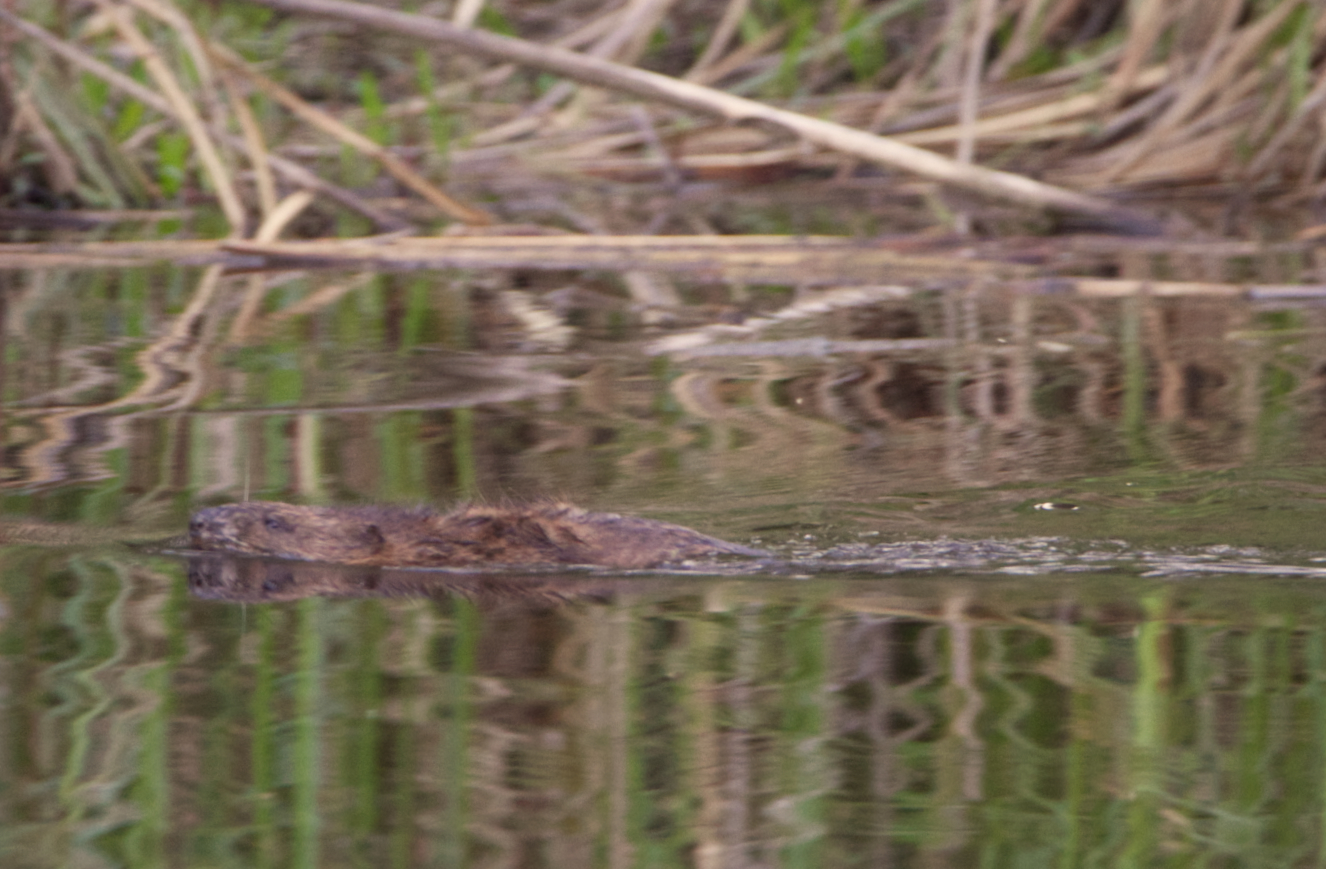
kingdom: Animalia
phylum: Chordata
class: Mammalia
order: Rodentia
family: Cricetidae
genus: Ondatra
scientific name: Ondatra zibethicus
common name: Muskrat
